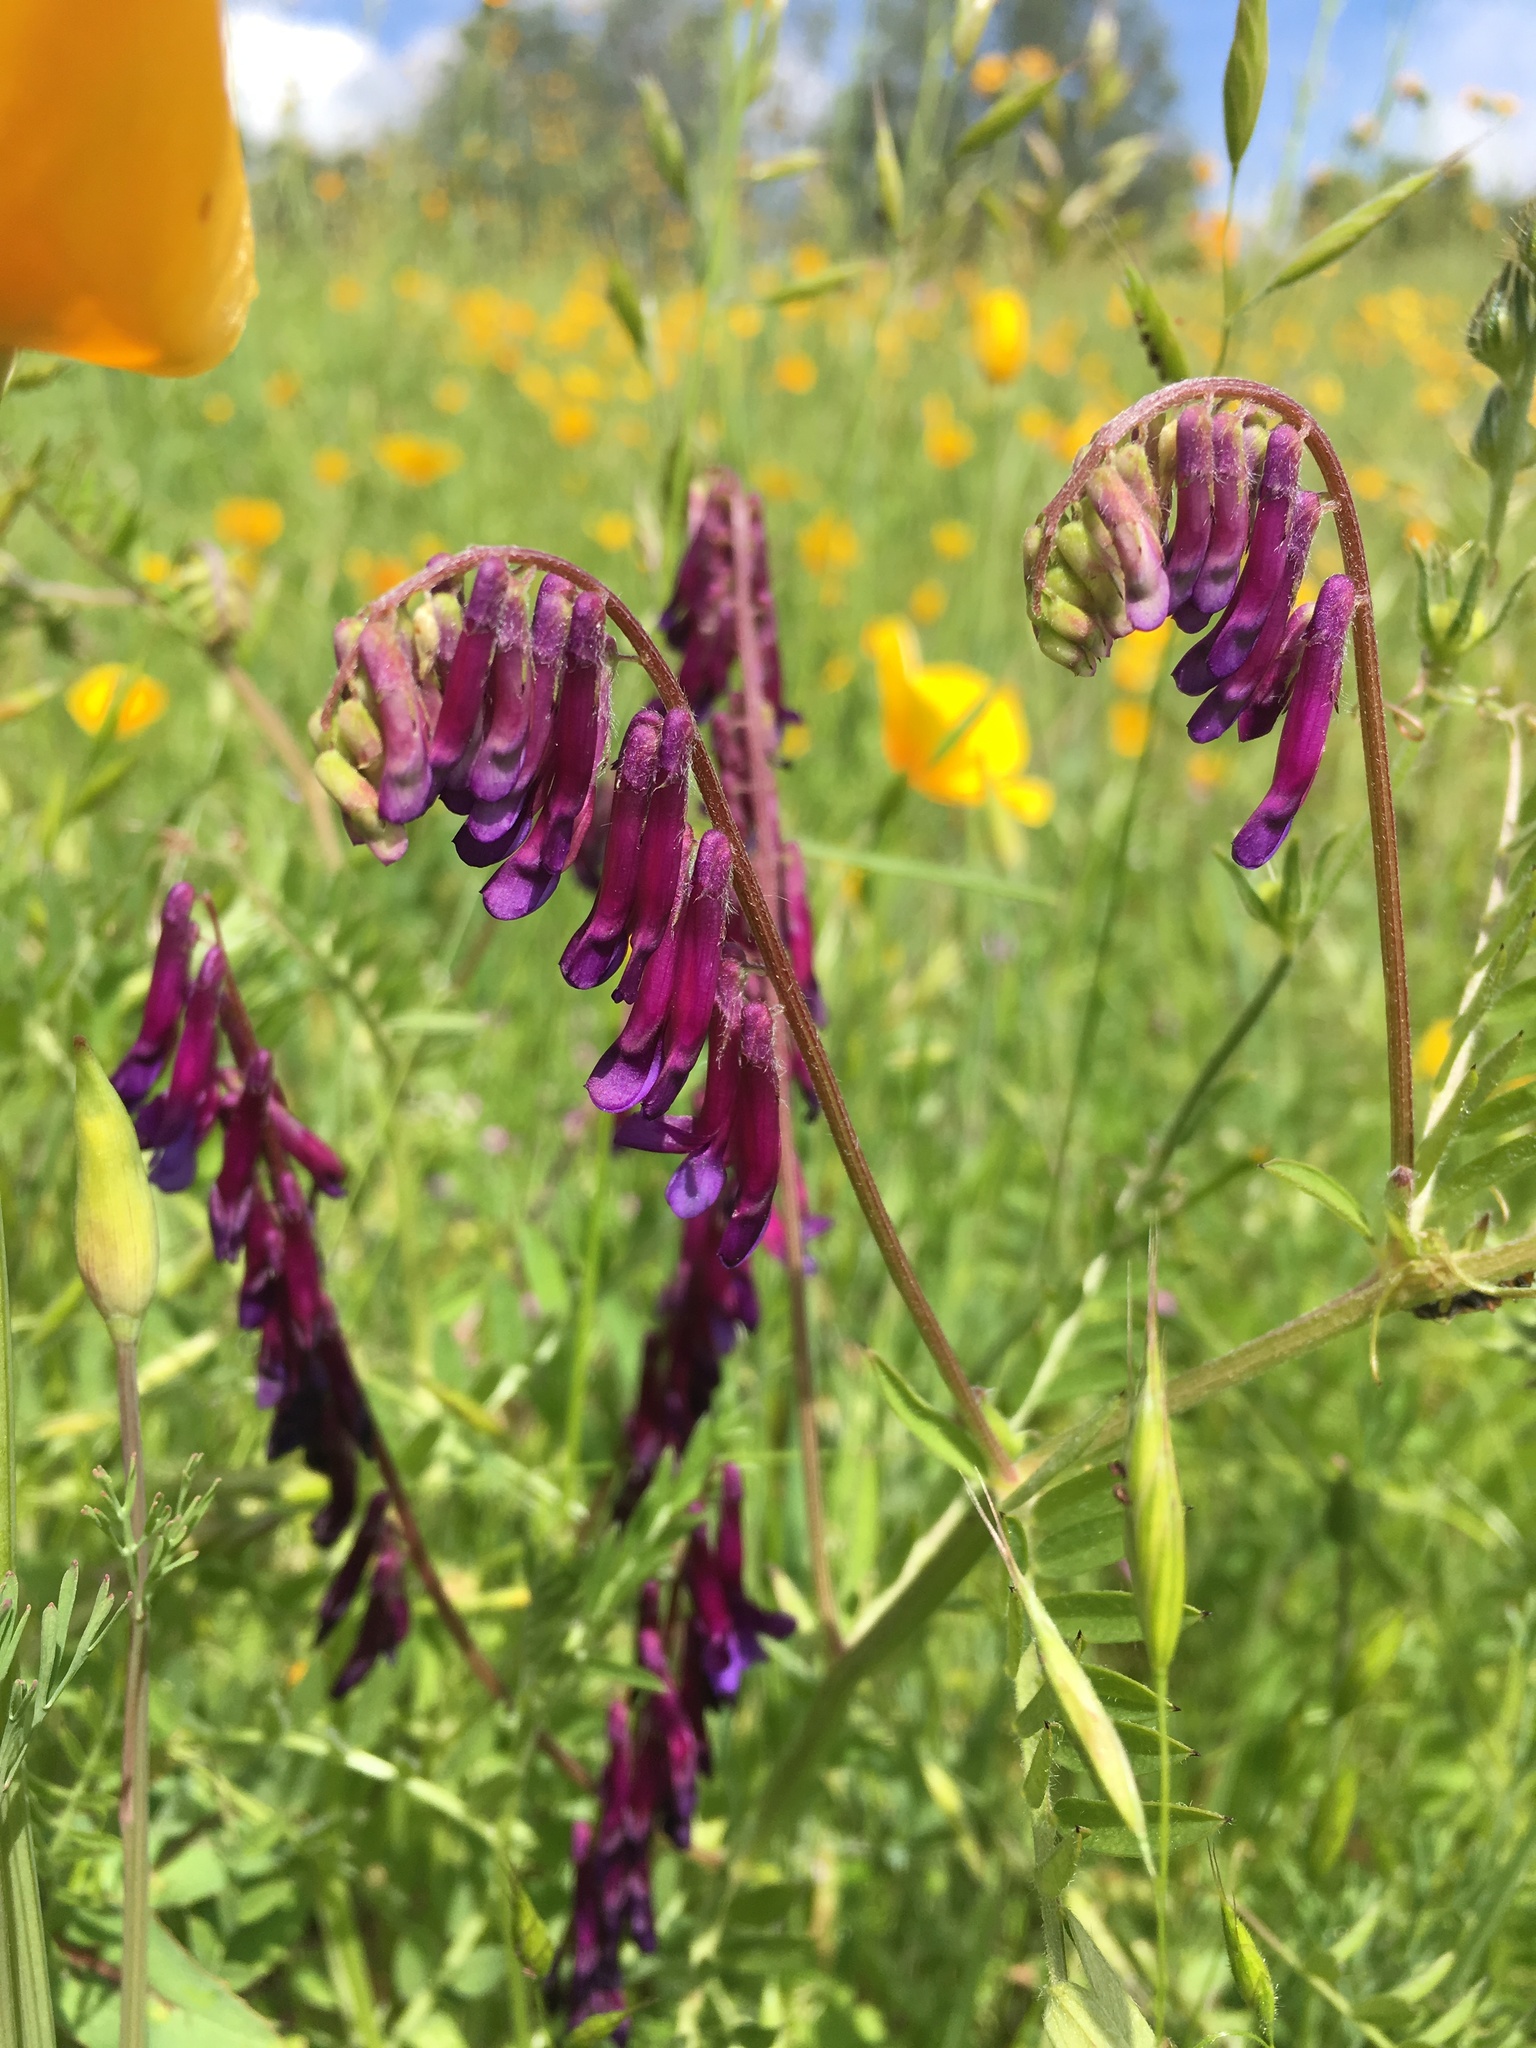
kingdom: Plantae
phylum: Tracheophyta
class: Magnoliopsida
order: Fabales
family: Fabaceae
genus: Vicia
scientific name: Vicia villosa
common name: Fodder vetch
